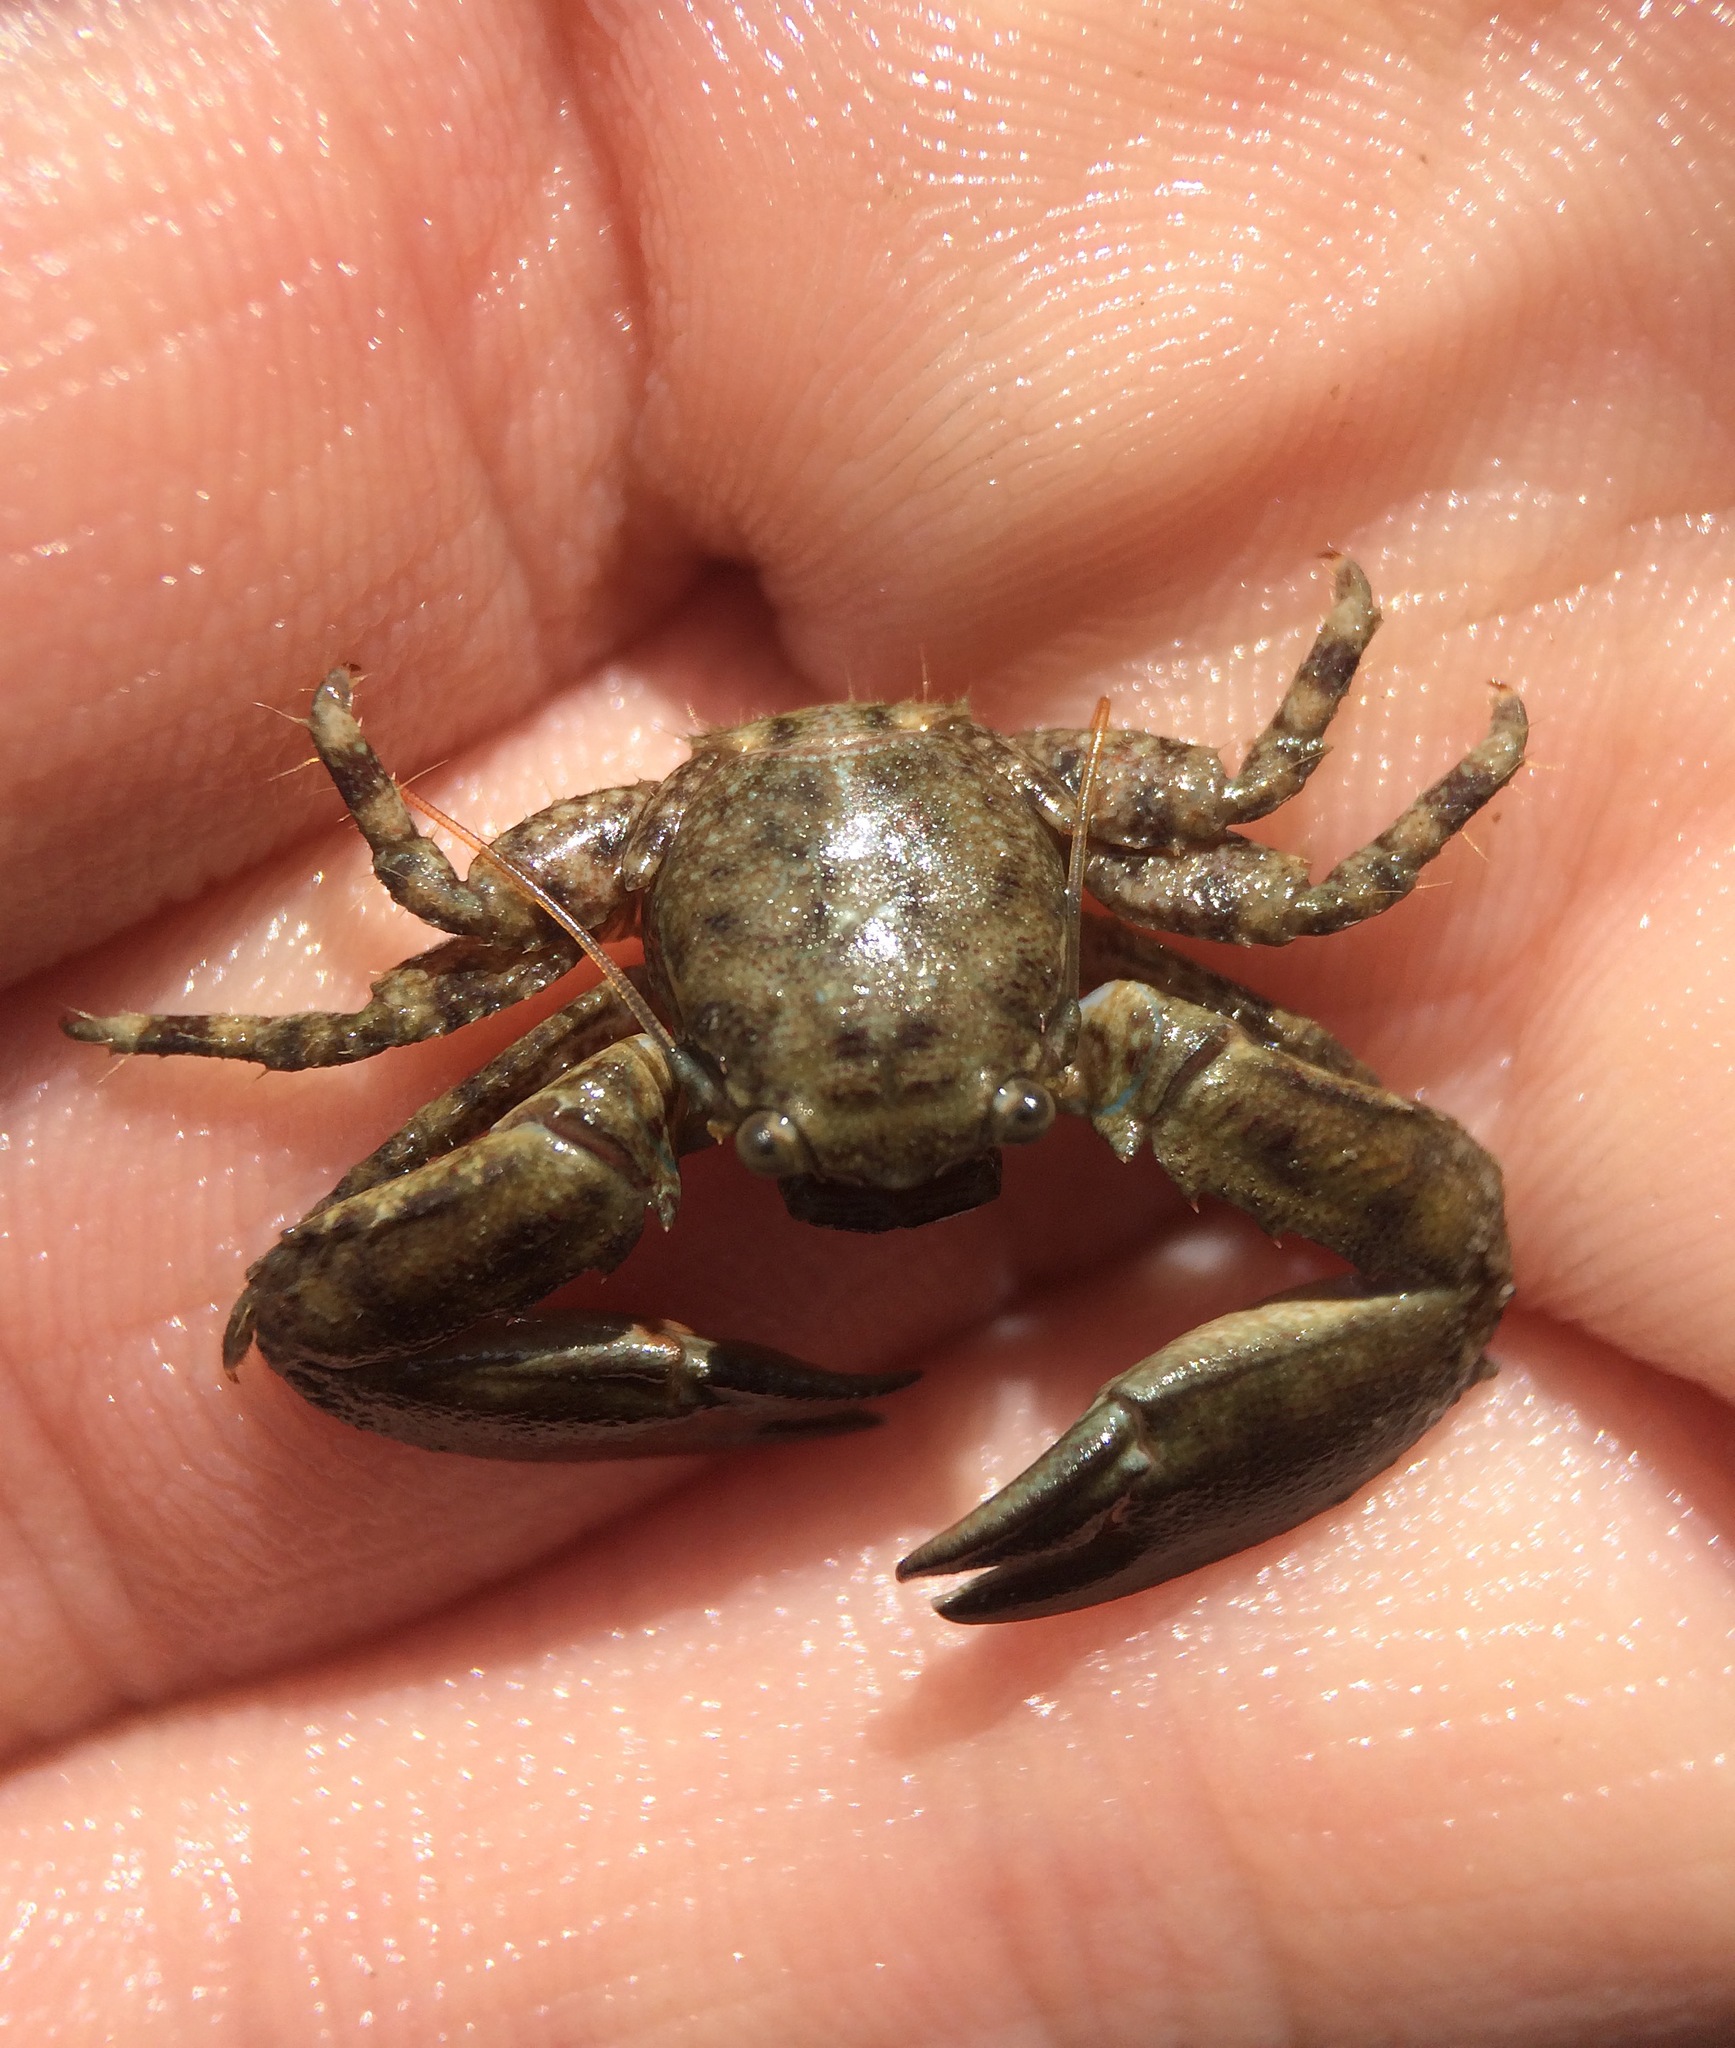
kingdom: Animalia
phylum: Arthropoda
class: Malacostraca
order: Decapoda
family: Porcellanidae
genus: Petrolisthes
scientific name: Petrolisthes armatus
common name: Green porcelain crab
